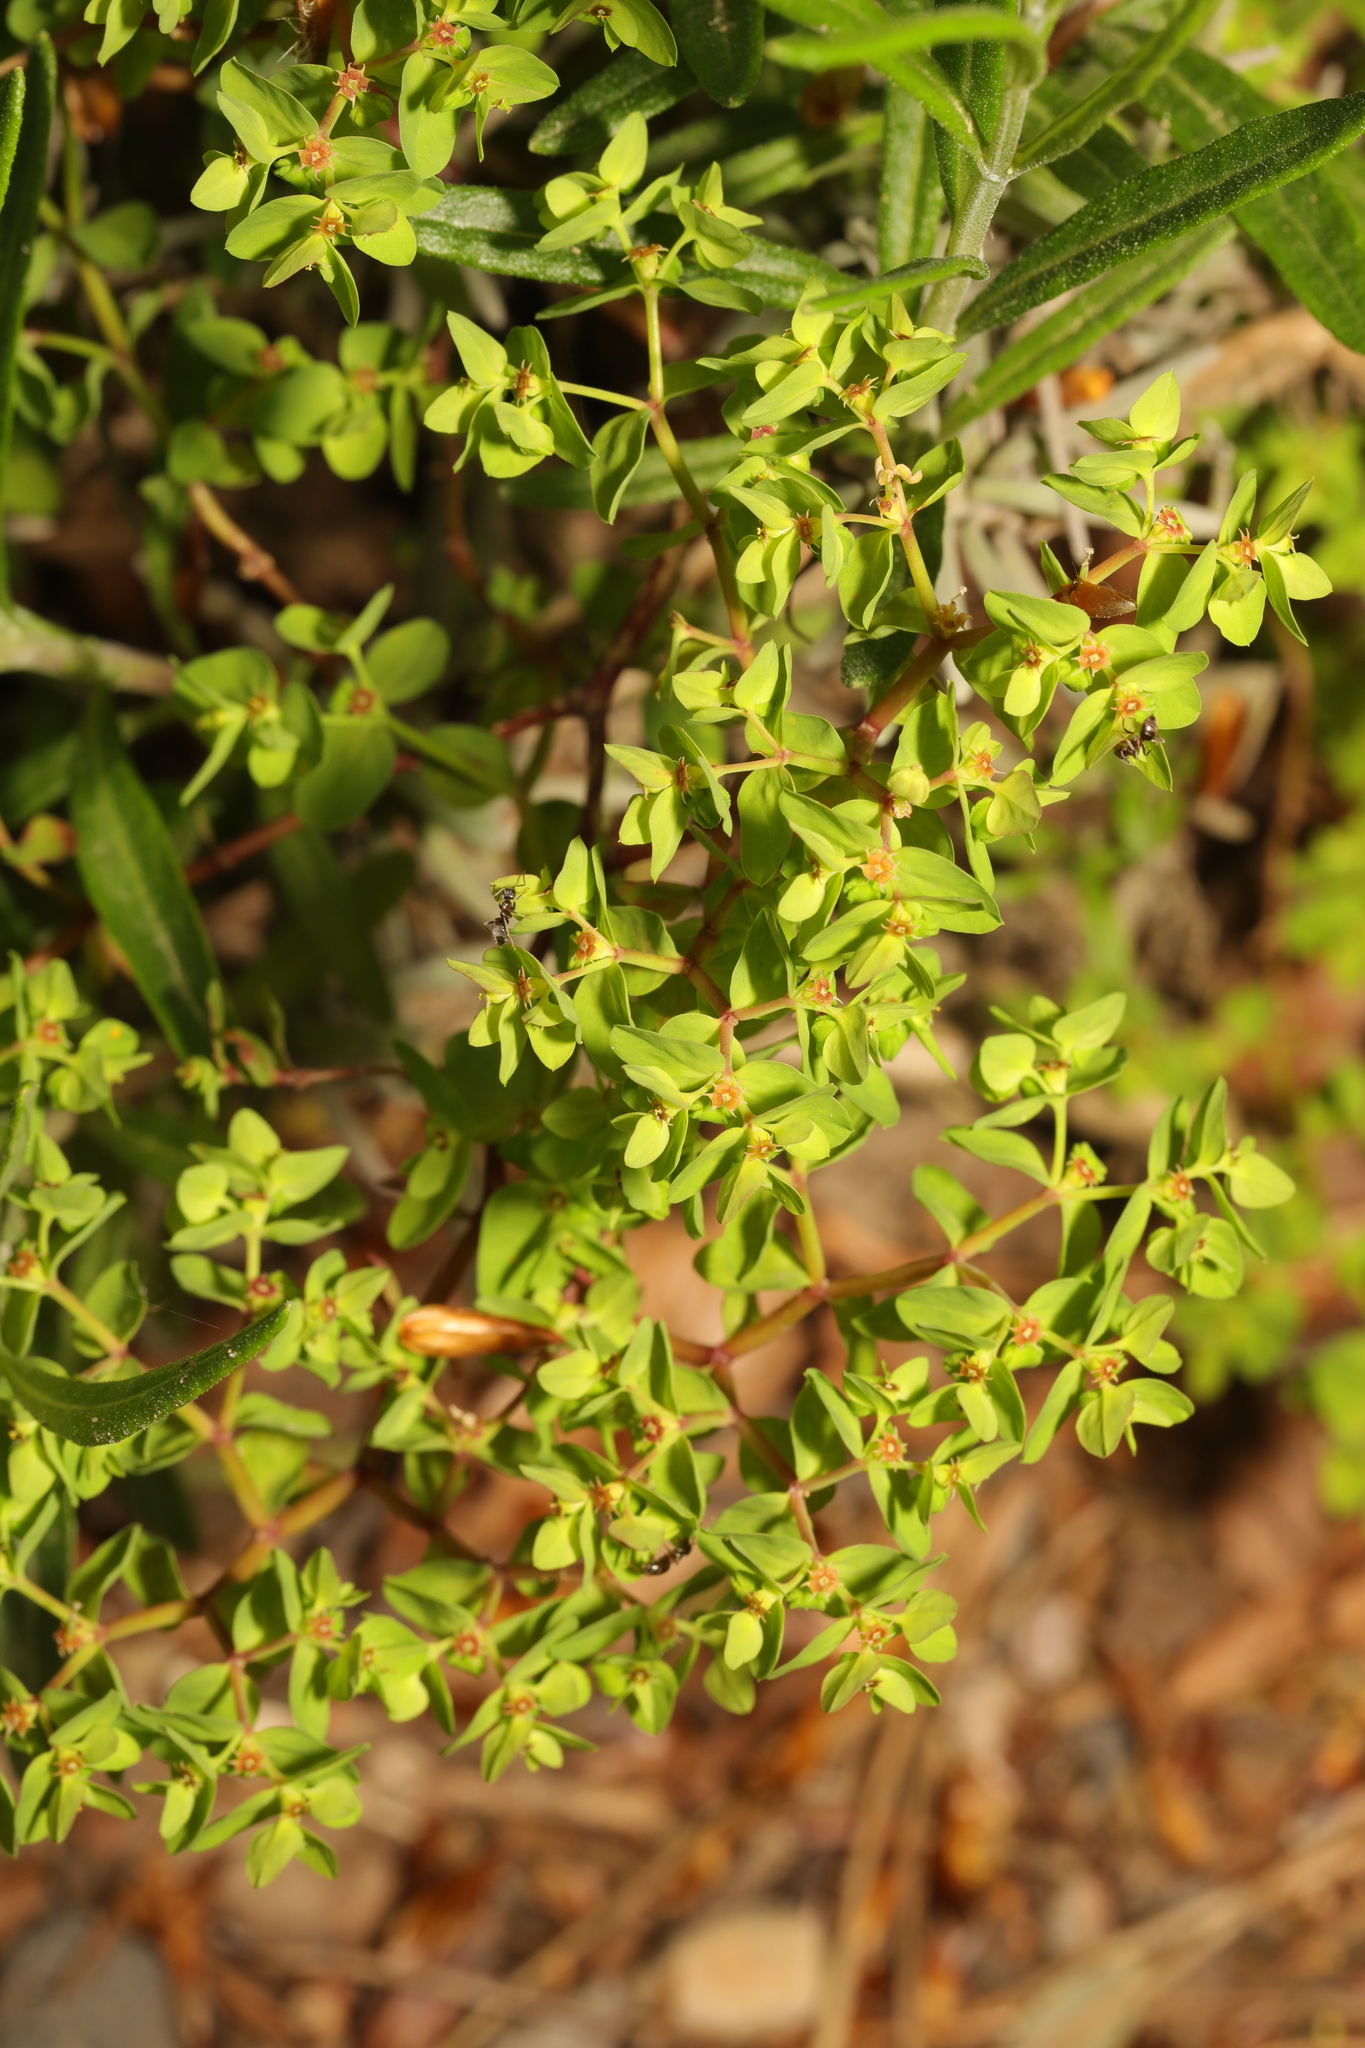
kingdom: Plantae
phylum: Tracheophyta
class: Magnoliopsida
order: Malpighiales
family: Euphorbiaceae
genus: Euphorbia
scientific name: Euphorbia peplus
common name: Petty spurge
